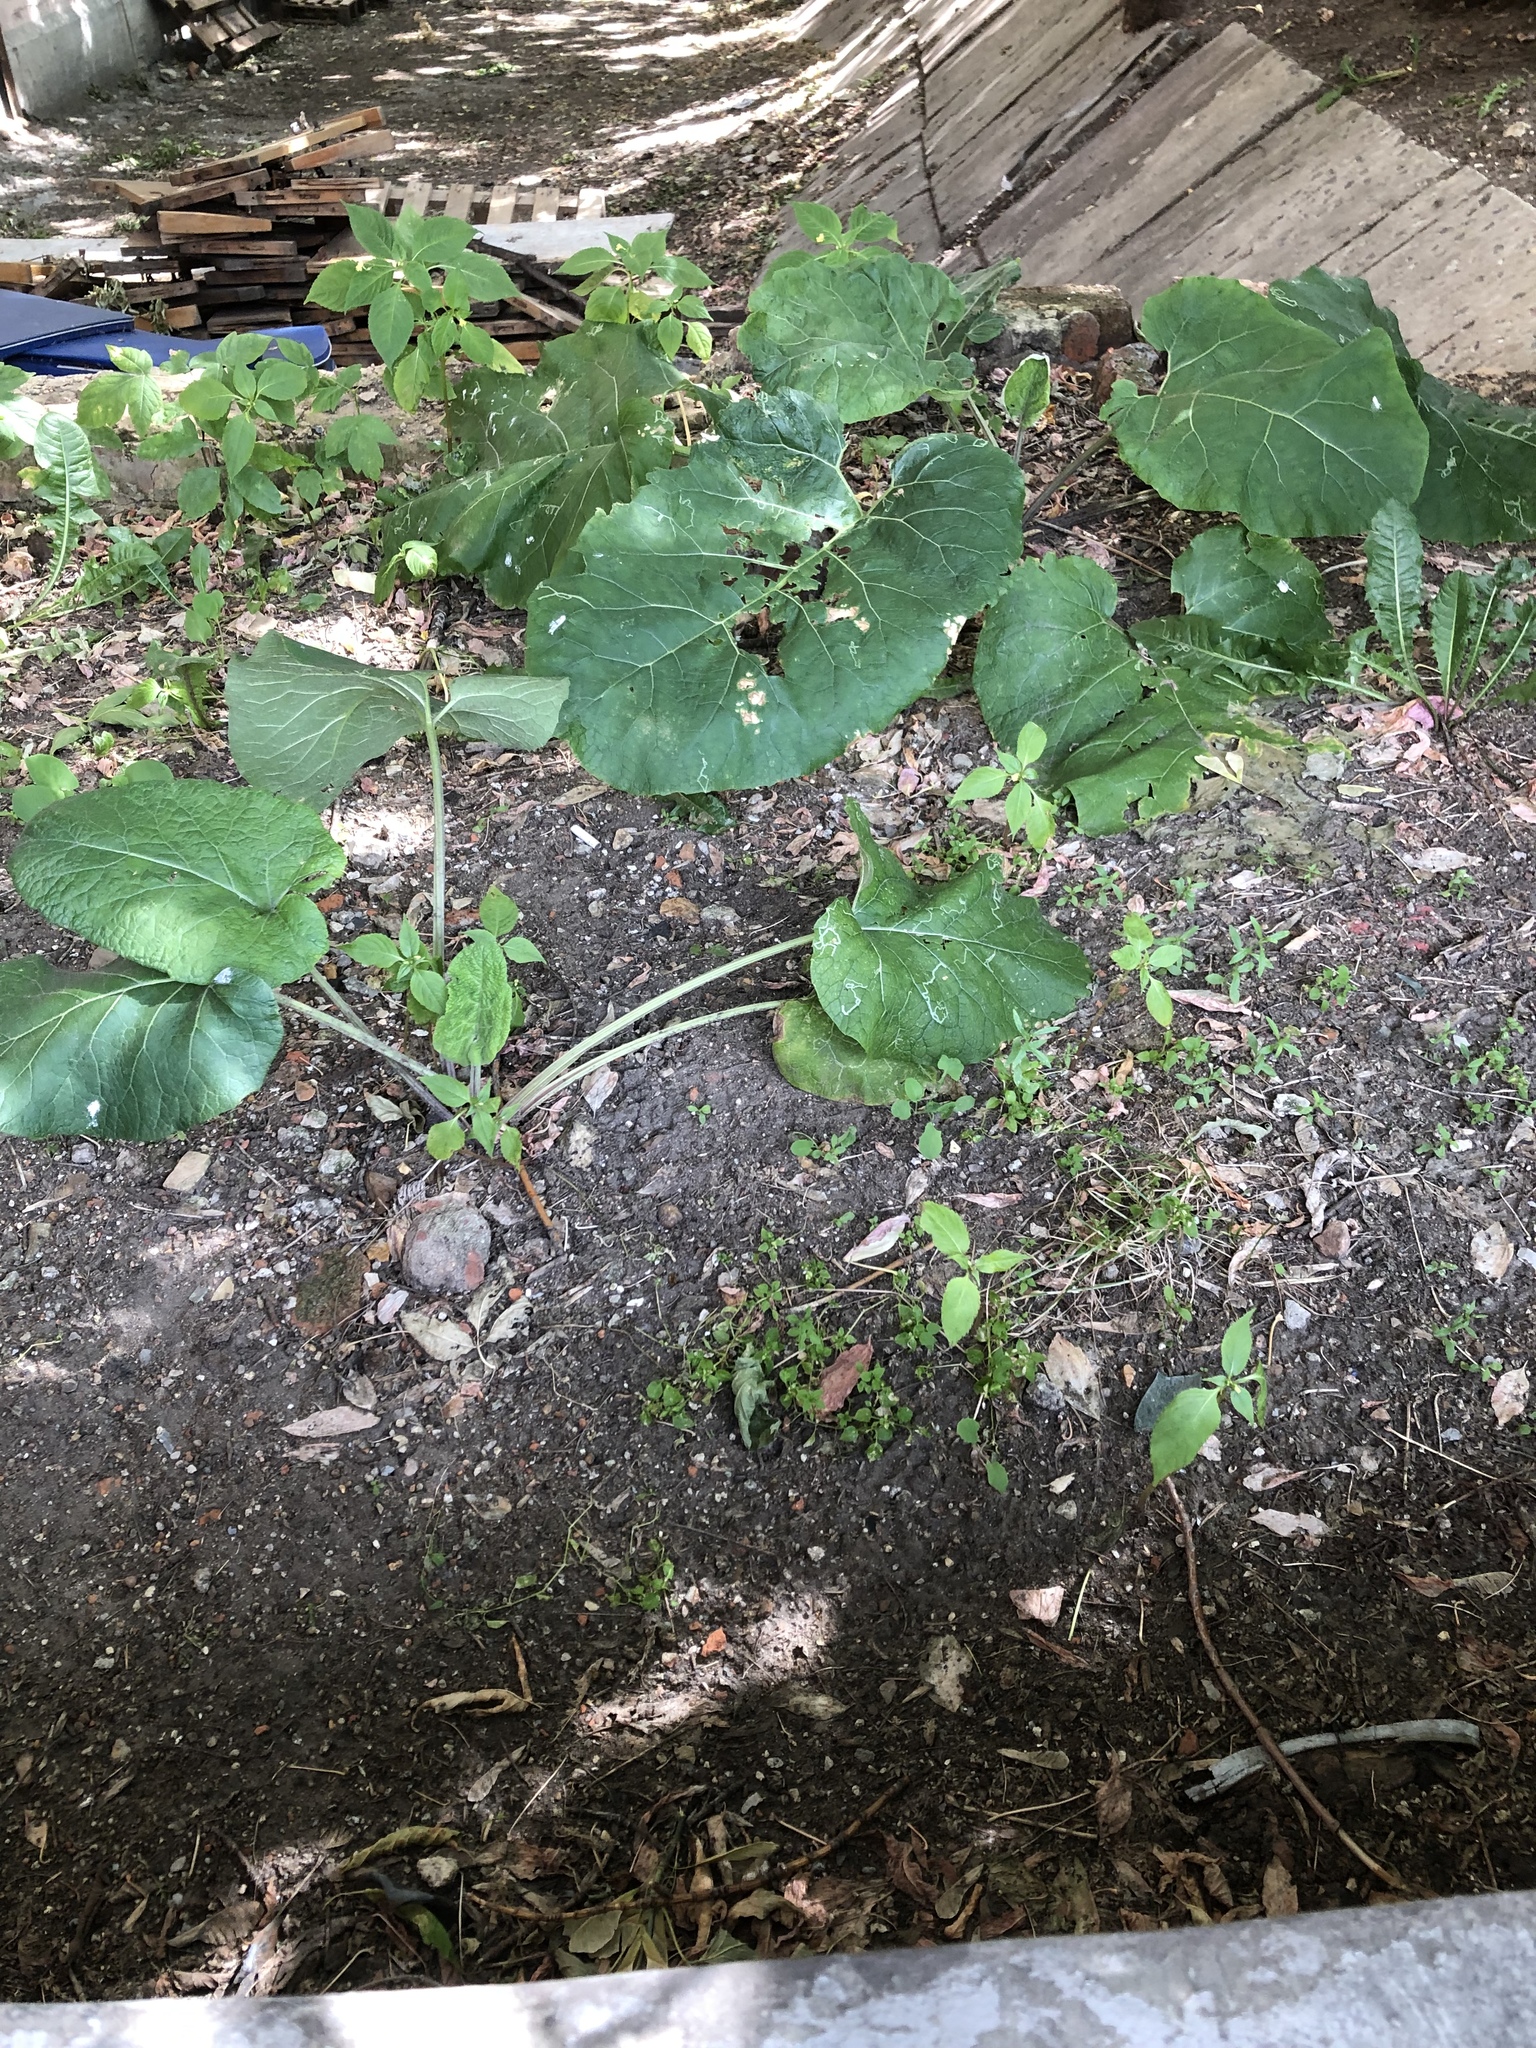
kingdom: Plantae
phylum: Tracheophyta
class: Magnoliopsida
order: Asterales
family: Asteraceae
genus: Arctium
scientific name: Arctium
